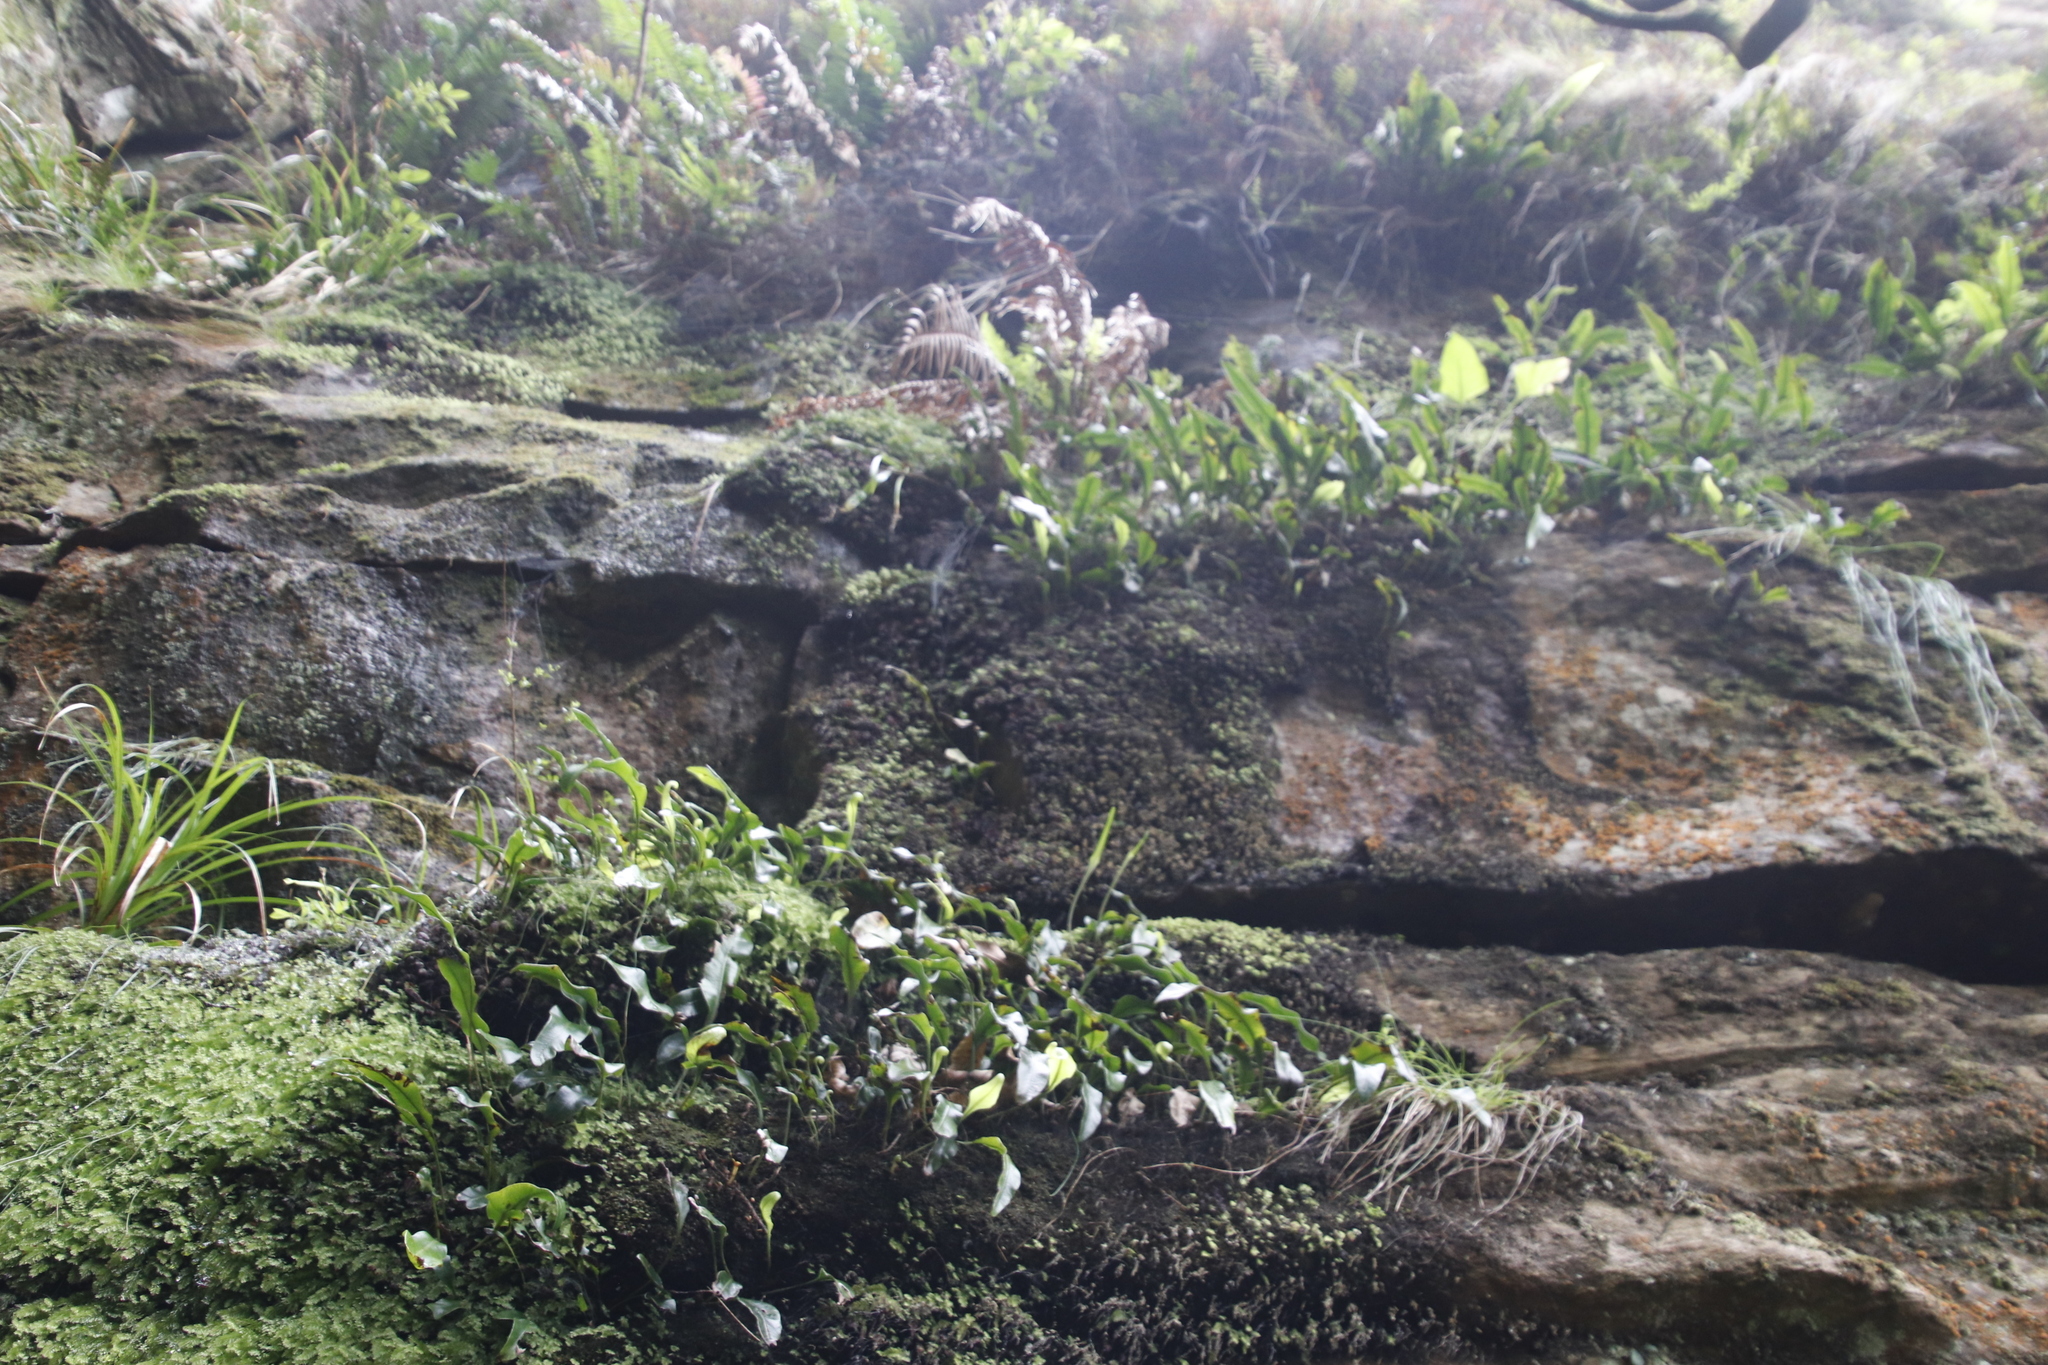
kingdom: Plantae
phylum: Tracheophyta
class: Polypodiopsida
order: Polypodiales
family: Dryopteridaceae
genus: Elaphoglossum
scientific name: Elaphoglossum angustatum
